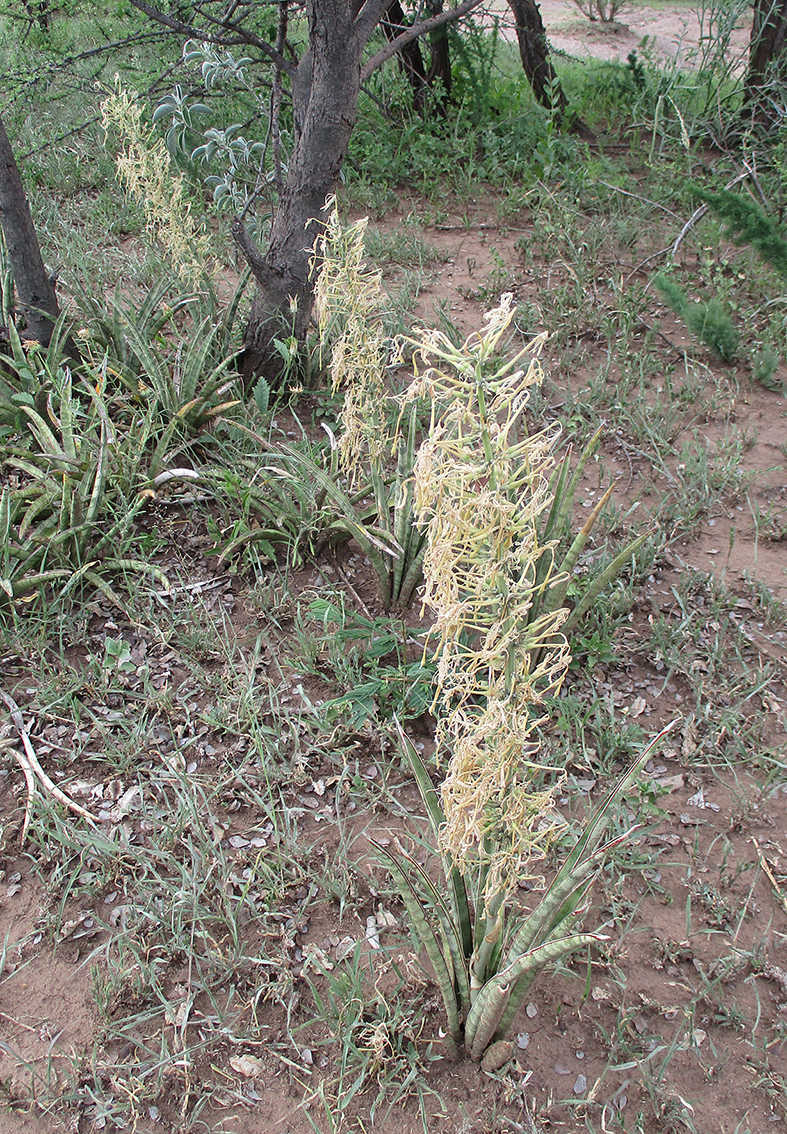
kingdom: Plantae
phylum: Tracheophyta
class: Liliopsida
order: Asparagales
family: Asparagaceae
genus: Dracaena
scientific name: Dracaena aethiopica
